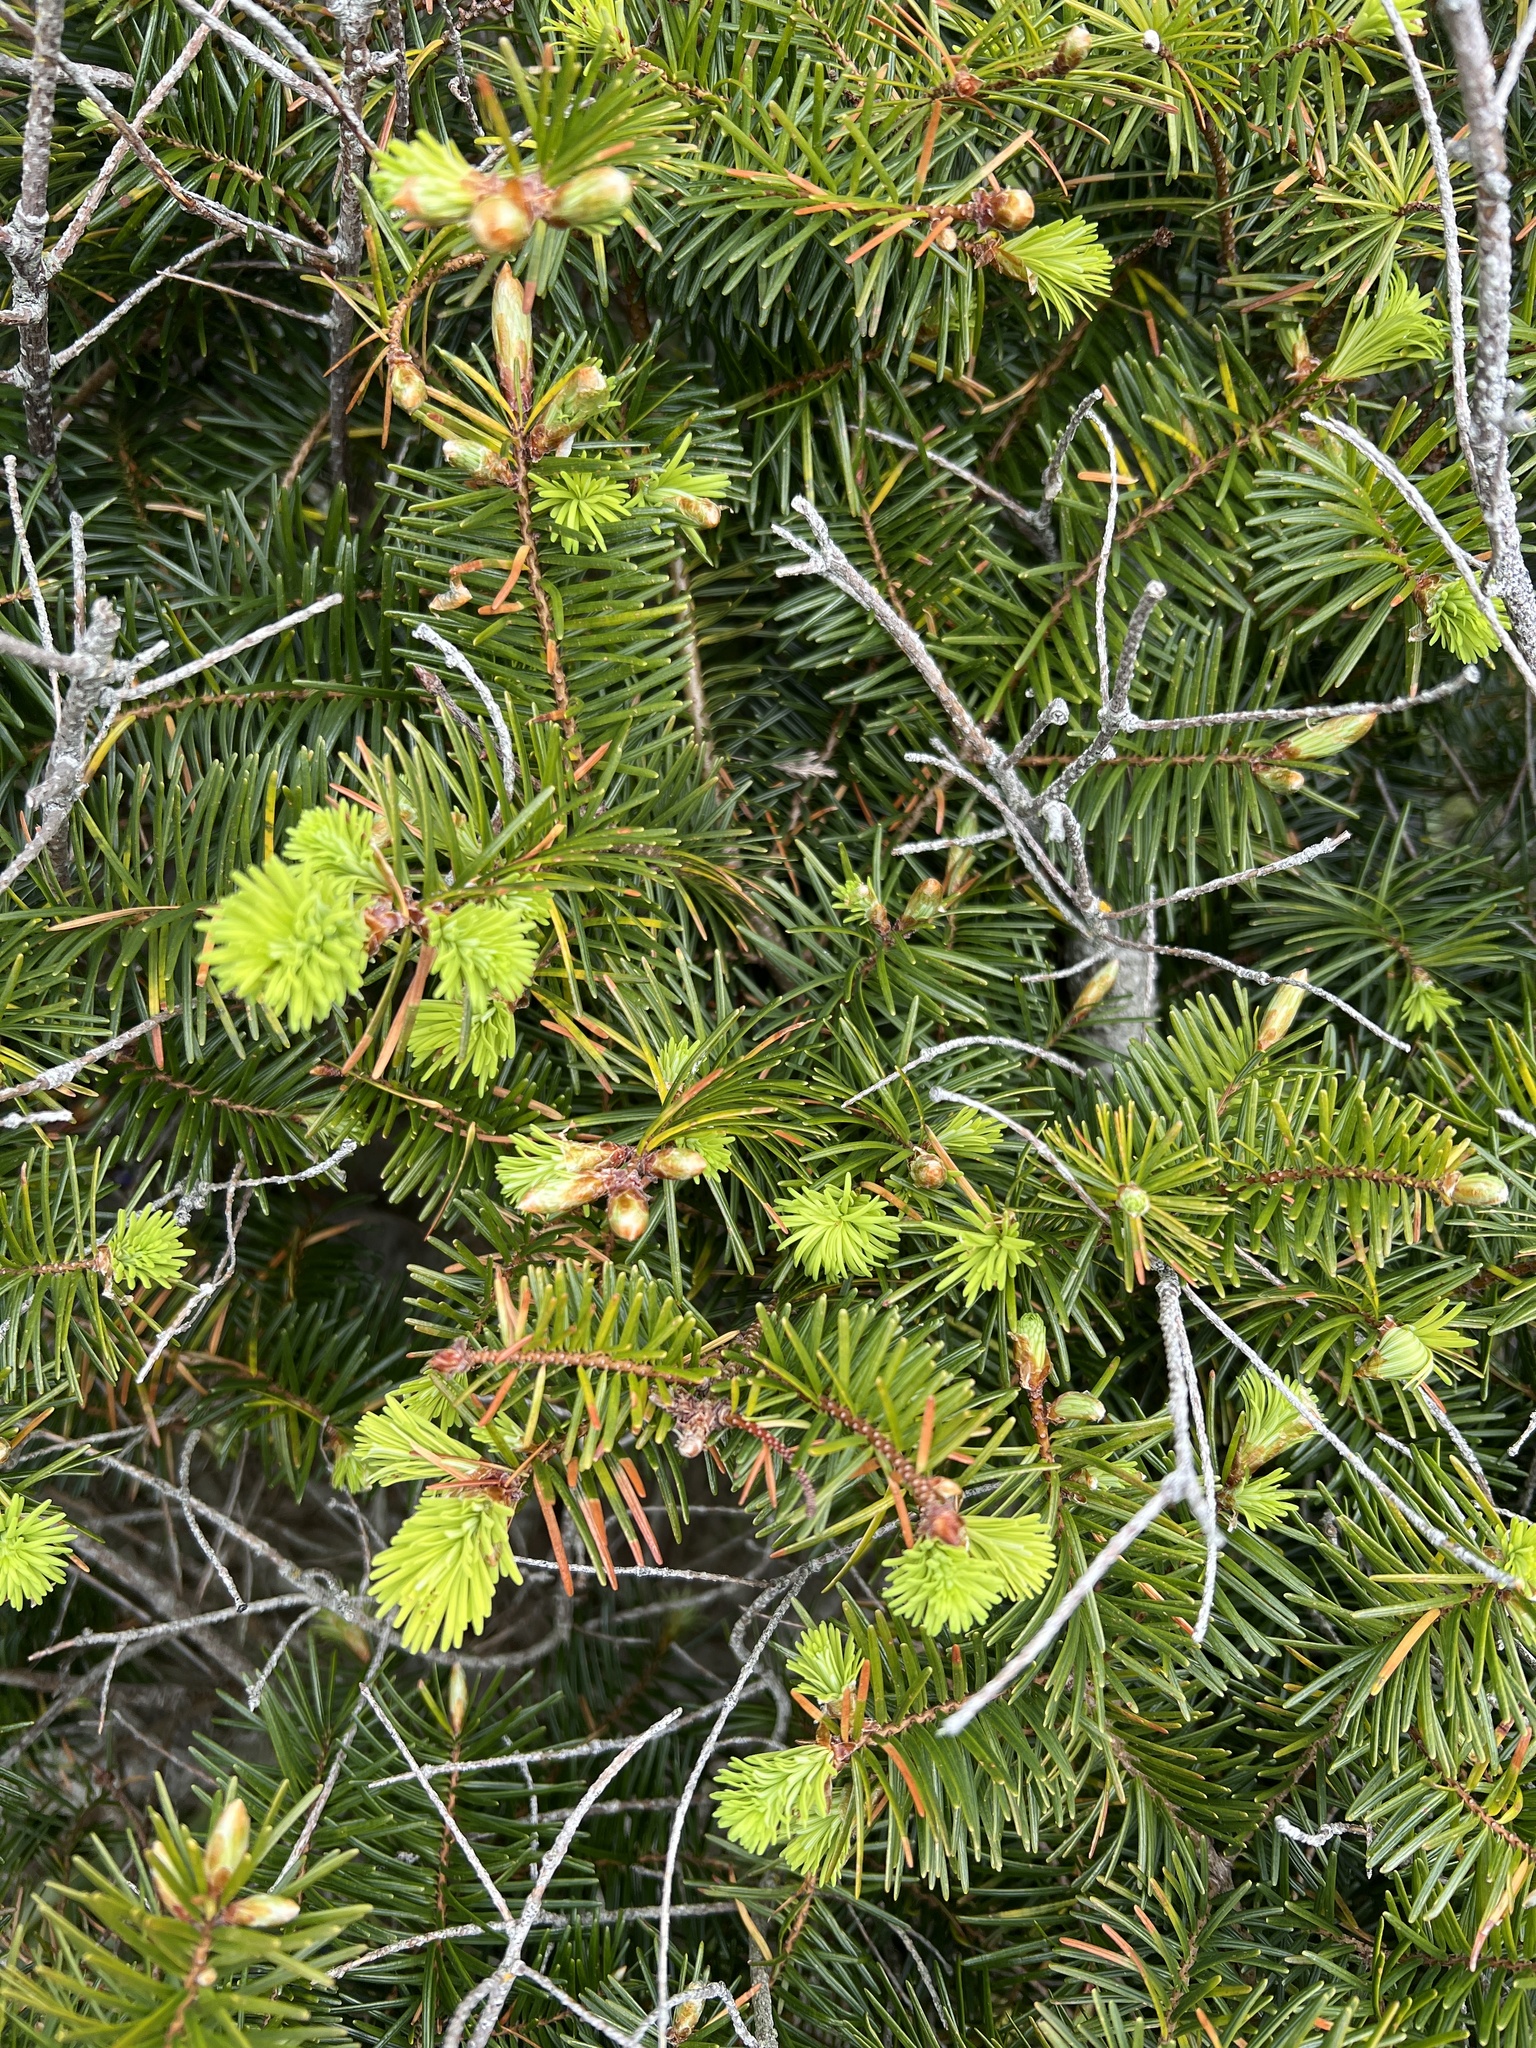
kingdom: Plantae
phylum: Tracheophyta
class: Pinopsida
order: Pinales
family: Pinaceae
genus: Pseudotsuga
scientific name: Pseudotsuga menziesii
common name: Douglas fir
